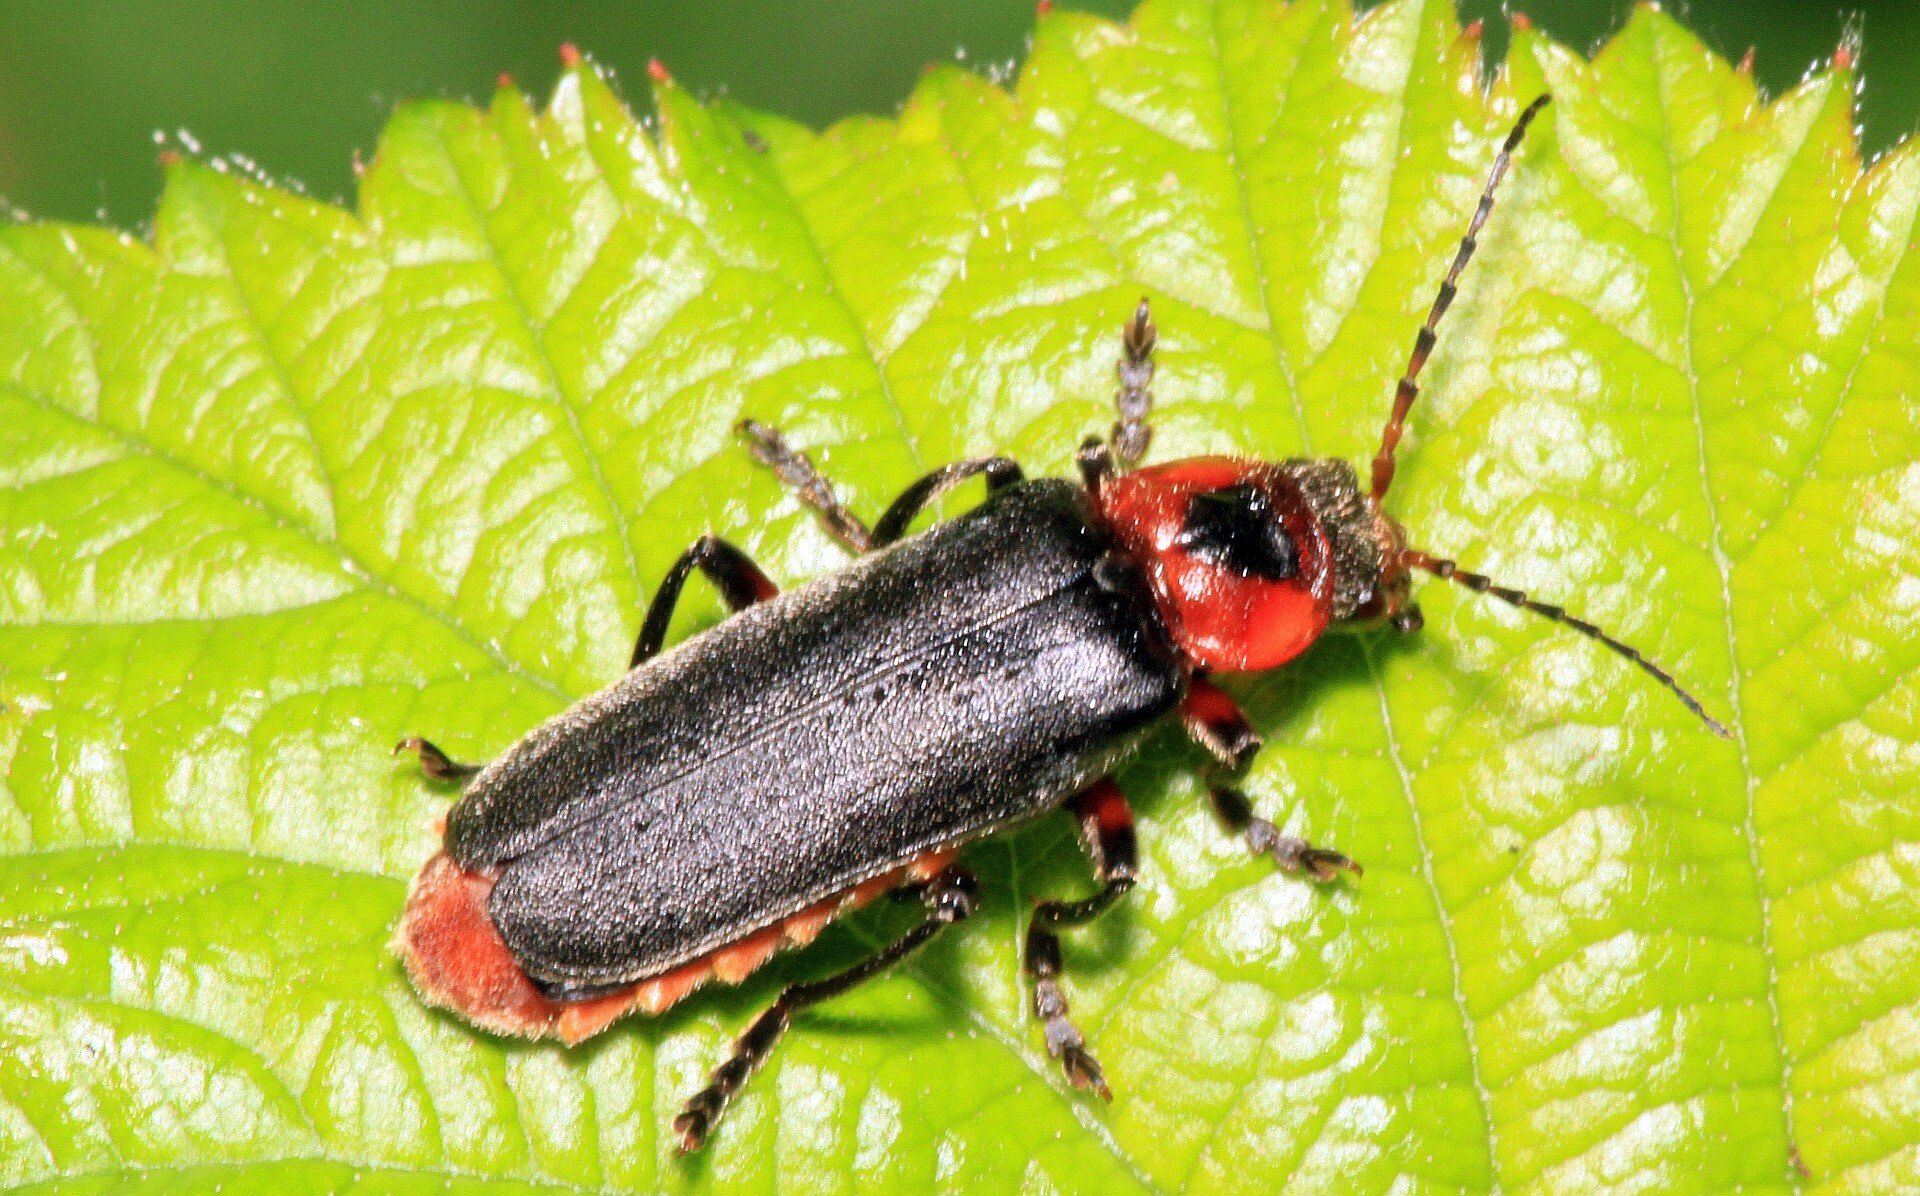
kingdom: Animalia
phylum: Arthropoda
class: Insecta
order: Coleoptera
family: Cantharidae
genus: Cantharis
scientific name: Cantharis rustica
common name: Soldier beetle
